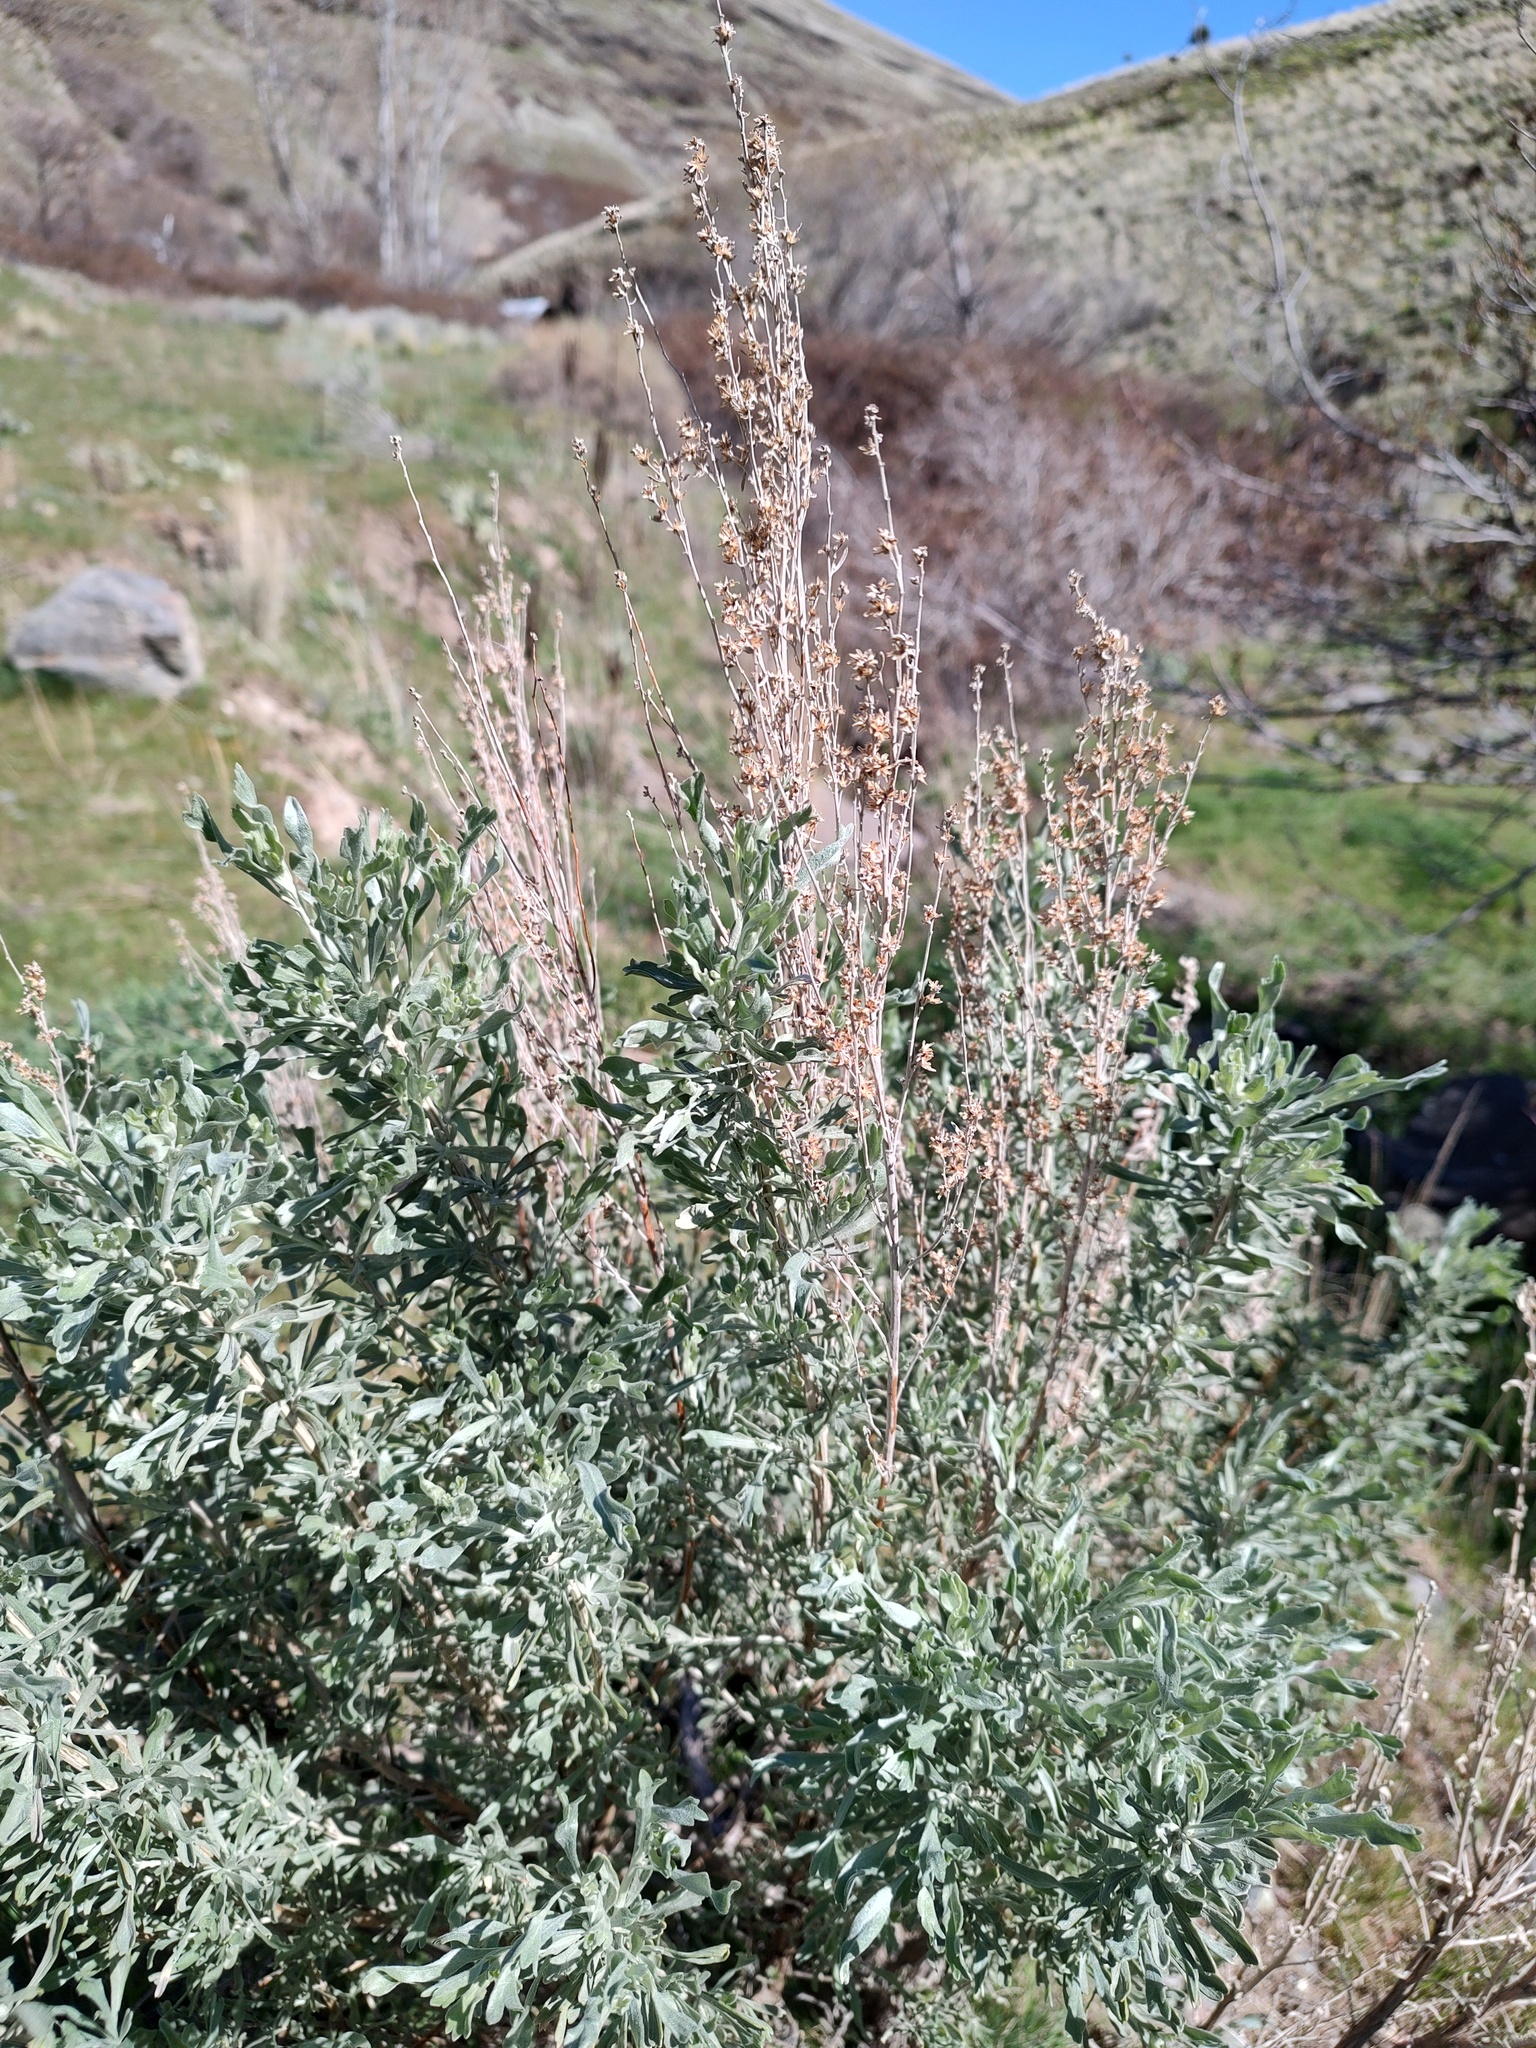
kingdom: Plantae
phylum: Tracheophyta
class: Magnoliopsida
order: Asterales
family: Asteraceae
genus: Artemisia
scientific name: Artemisia tridentata
